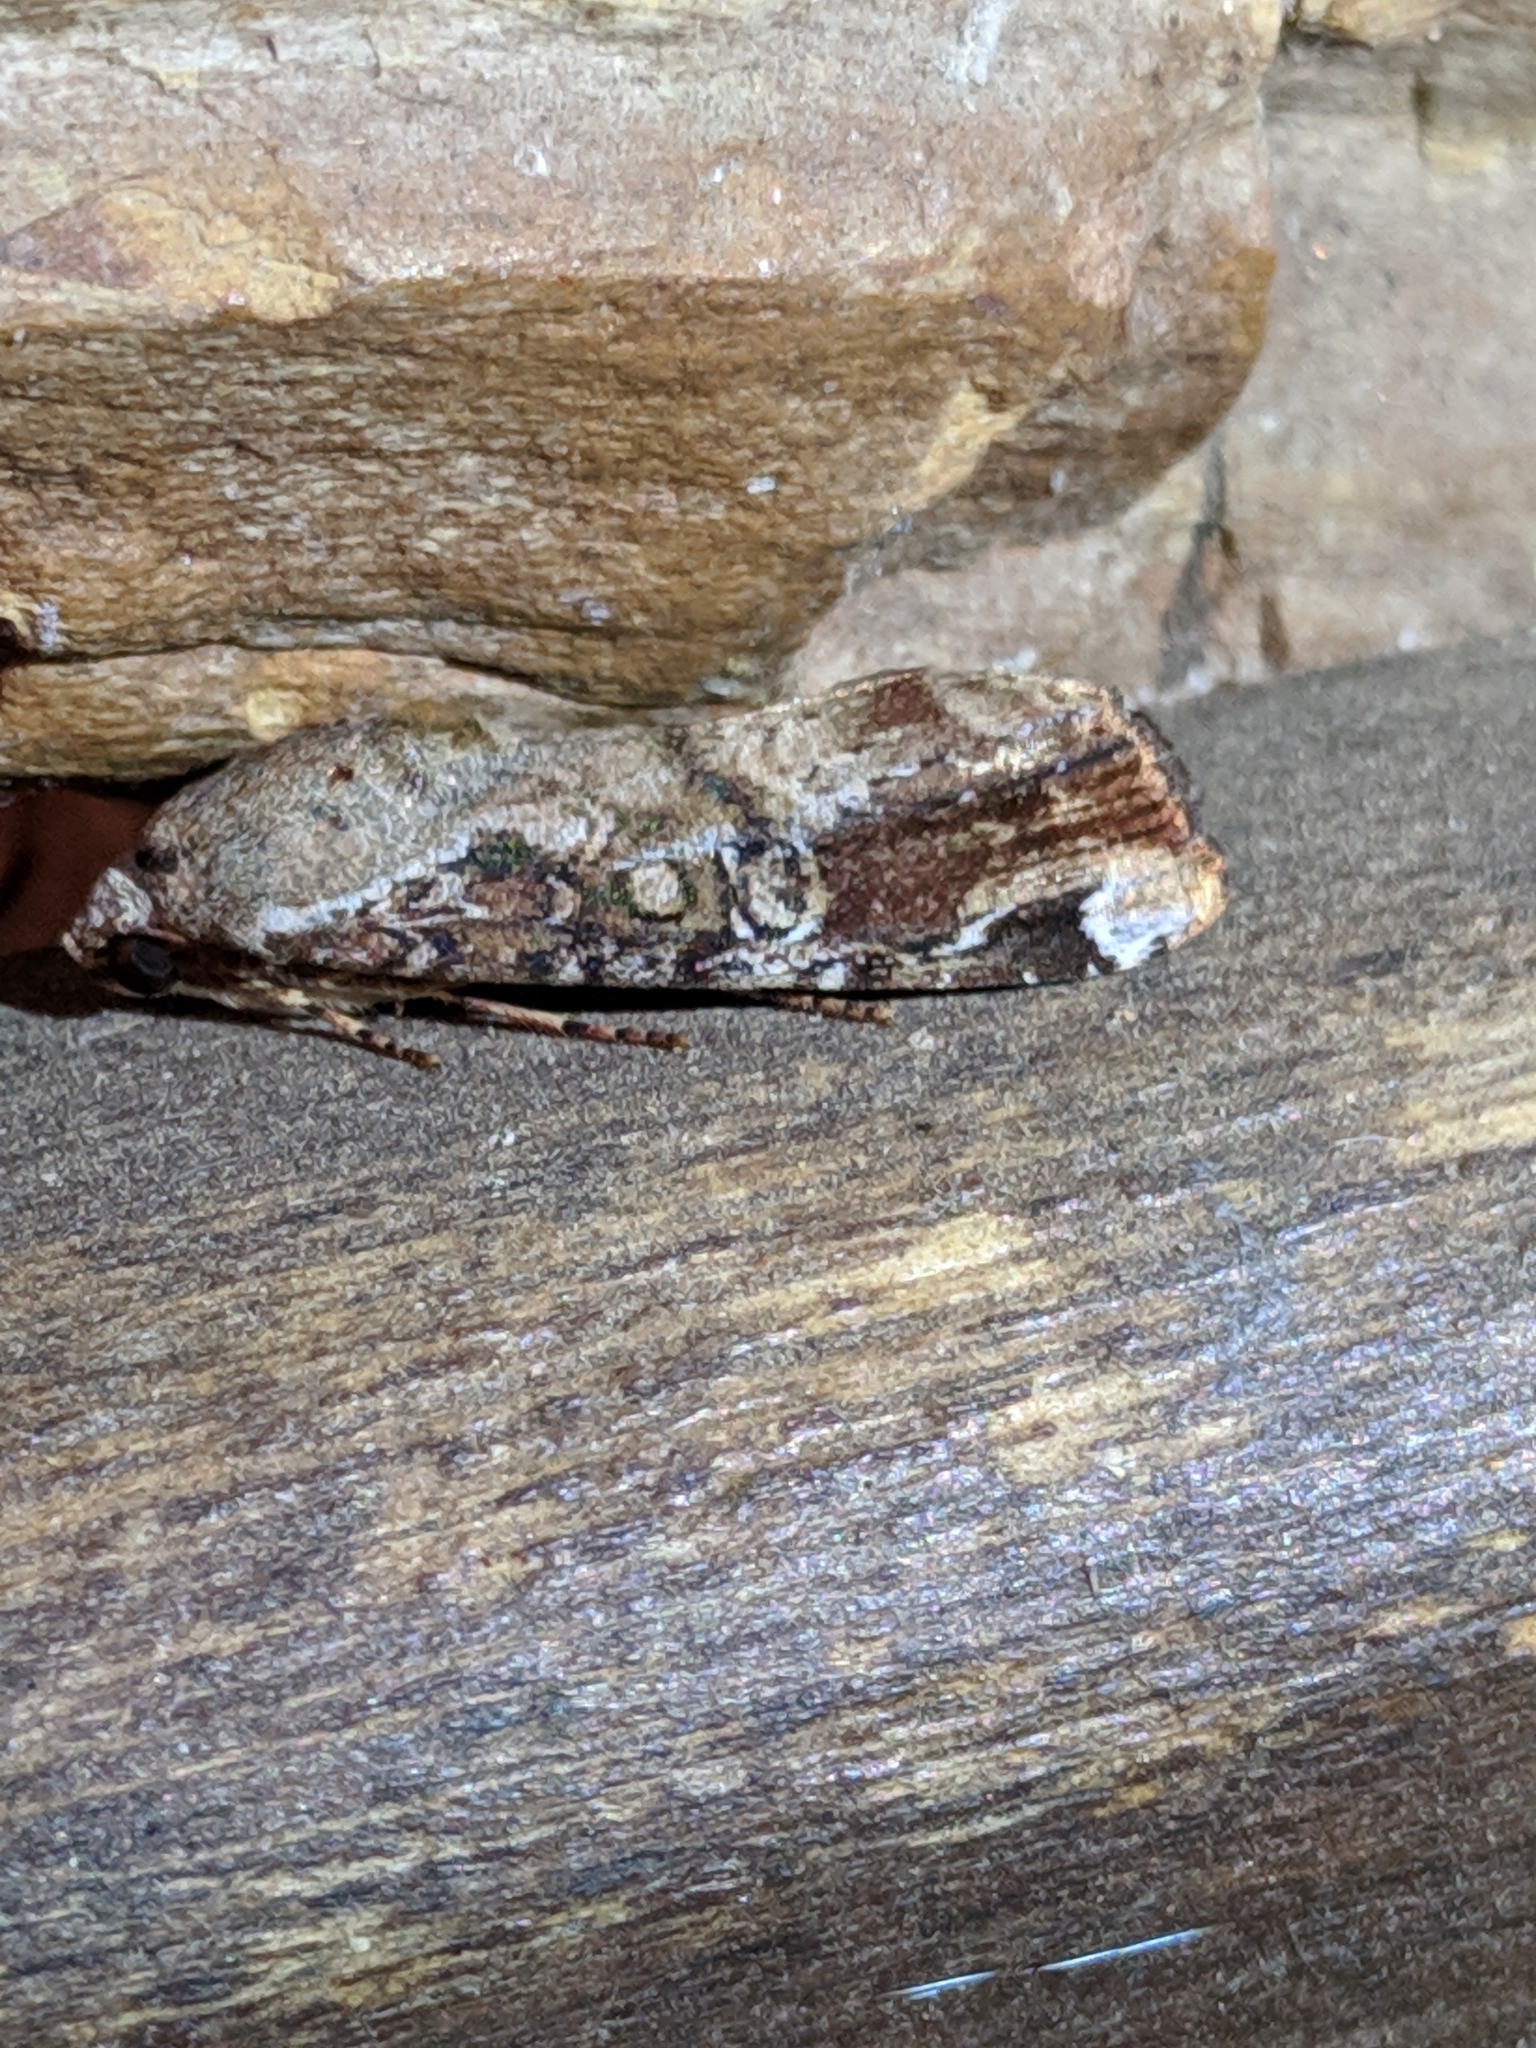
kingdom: Animalia
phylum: Arthropoda
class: Insecta
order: Lepidoptera
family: Noctuidae
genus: Magusa
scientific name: Magusa divaricata
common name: Orb narrow-winged moth
